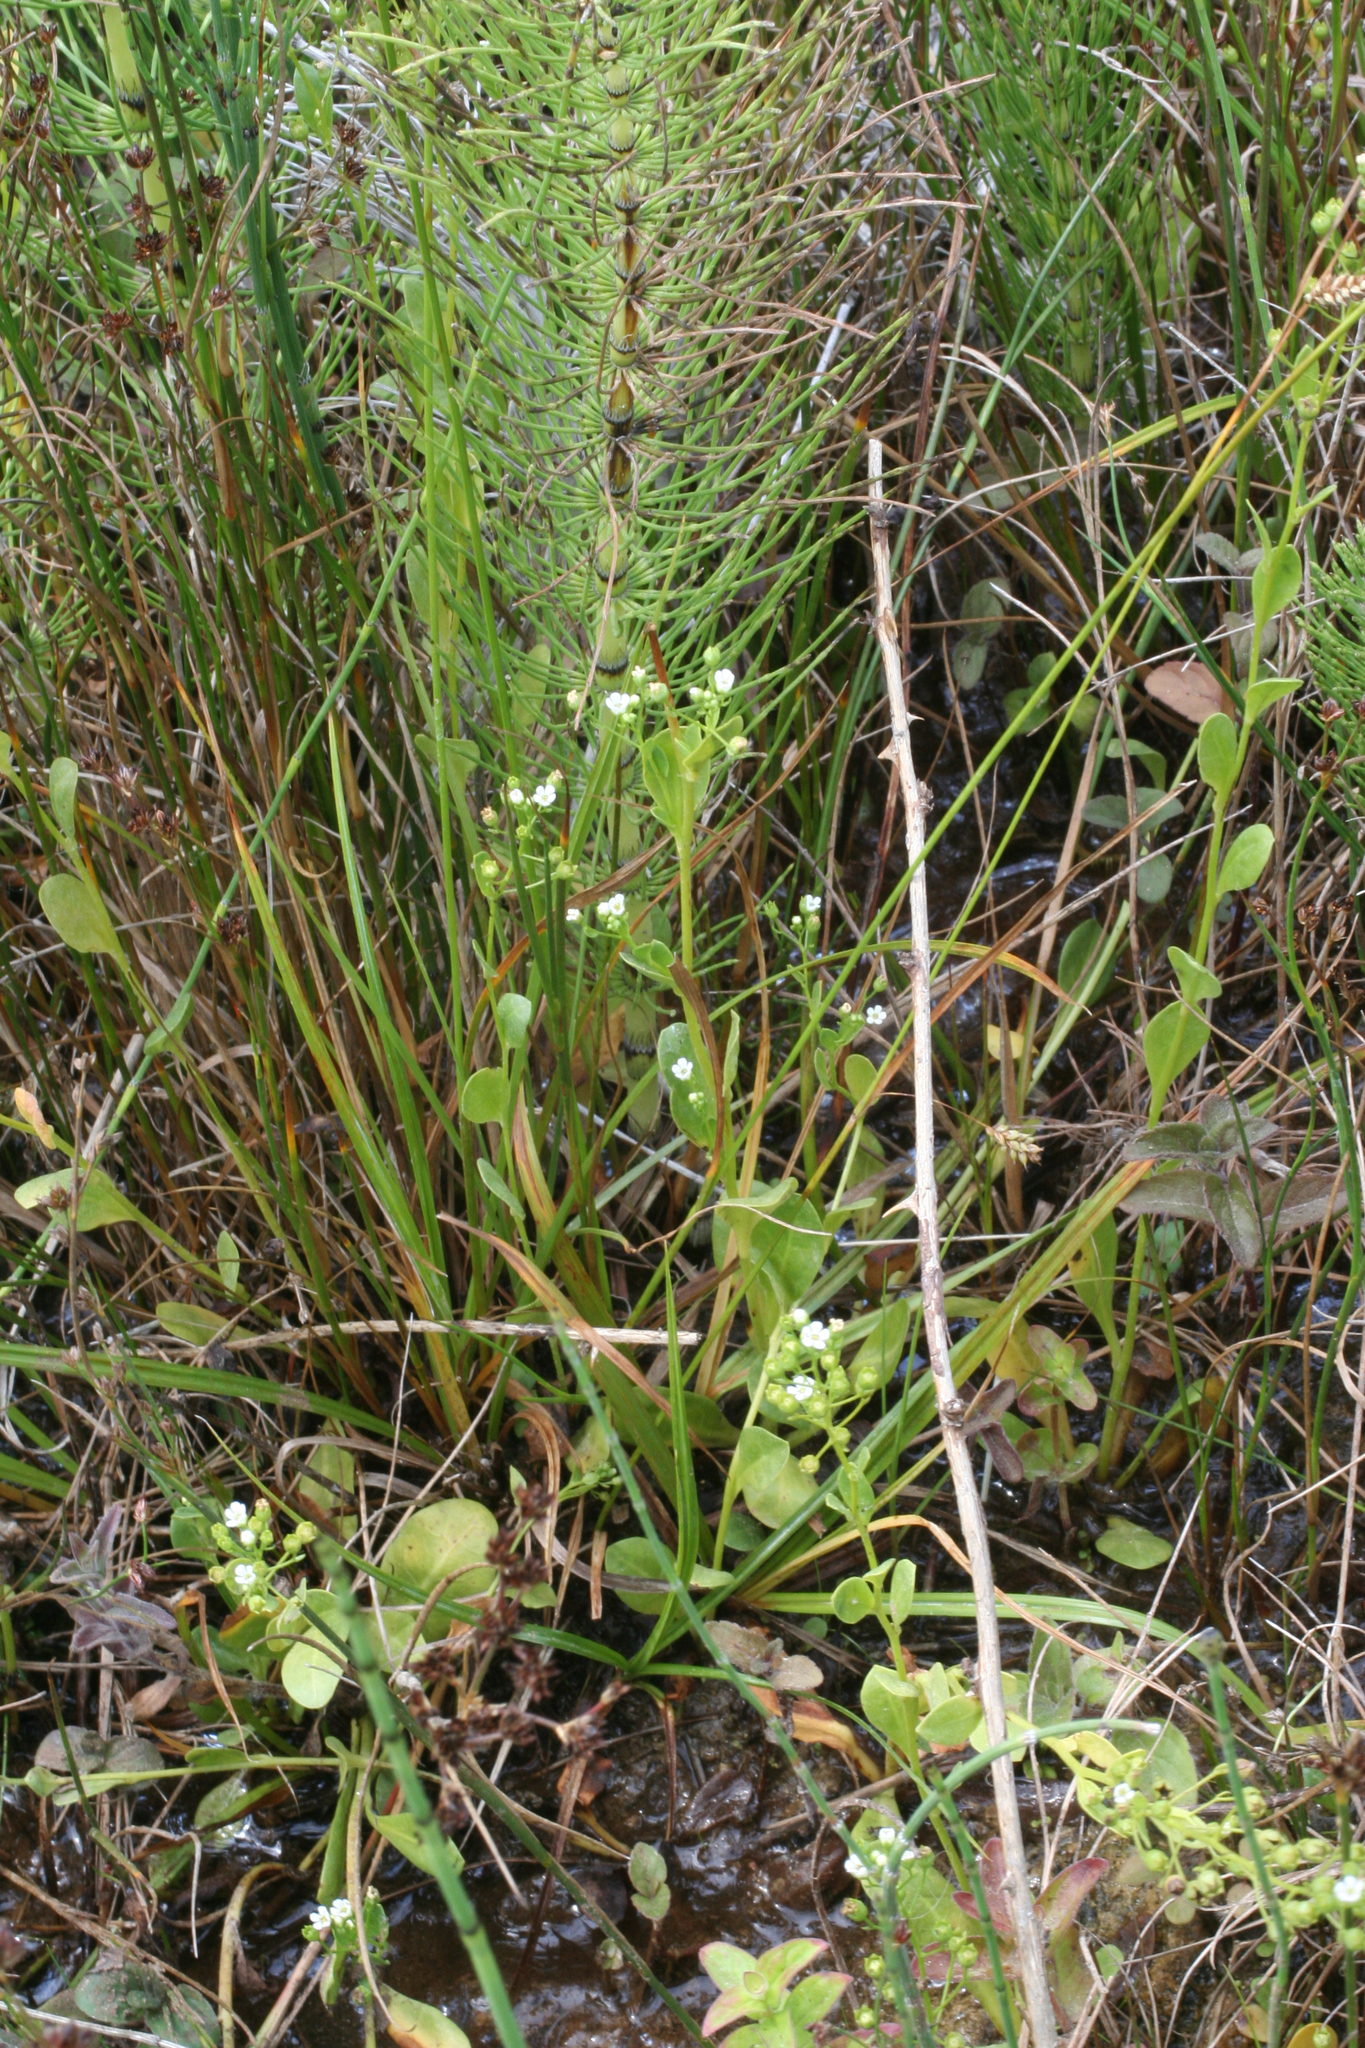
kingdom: Plantae
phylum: Tracheophyta
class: Polypodiopsida
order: Equisetales
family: Equisetaceae
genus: Equisetum
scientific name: Equisetum telmateia
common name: Great horsetail
